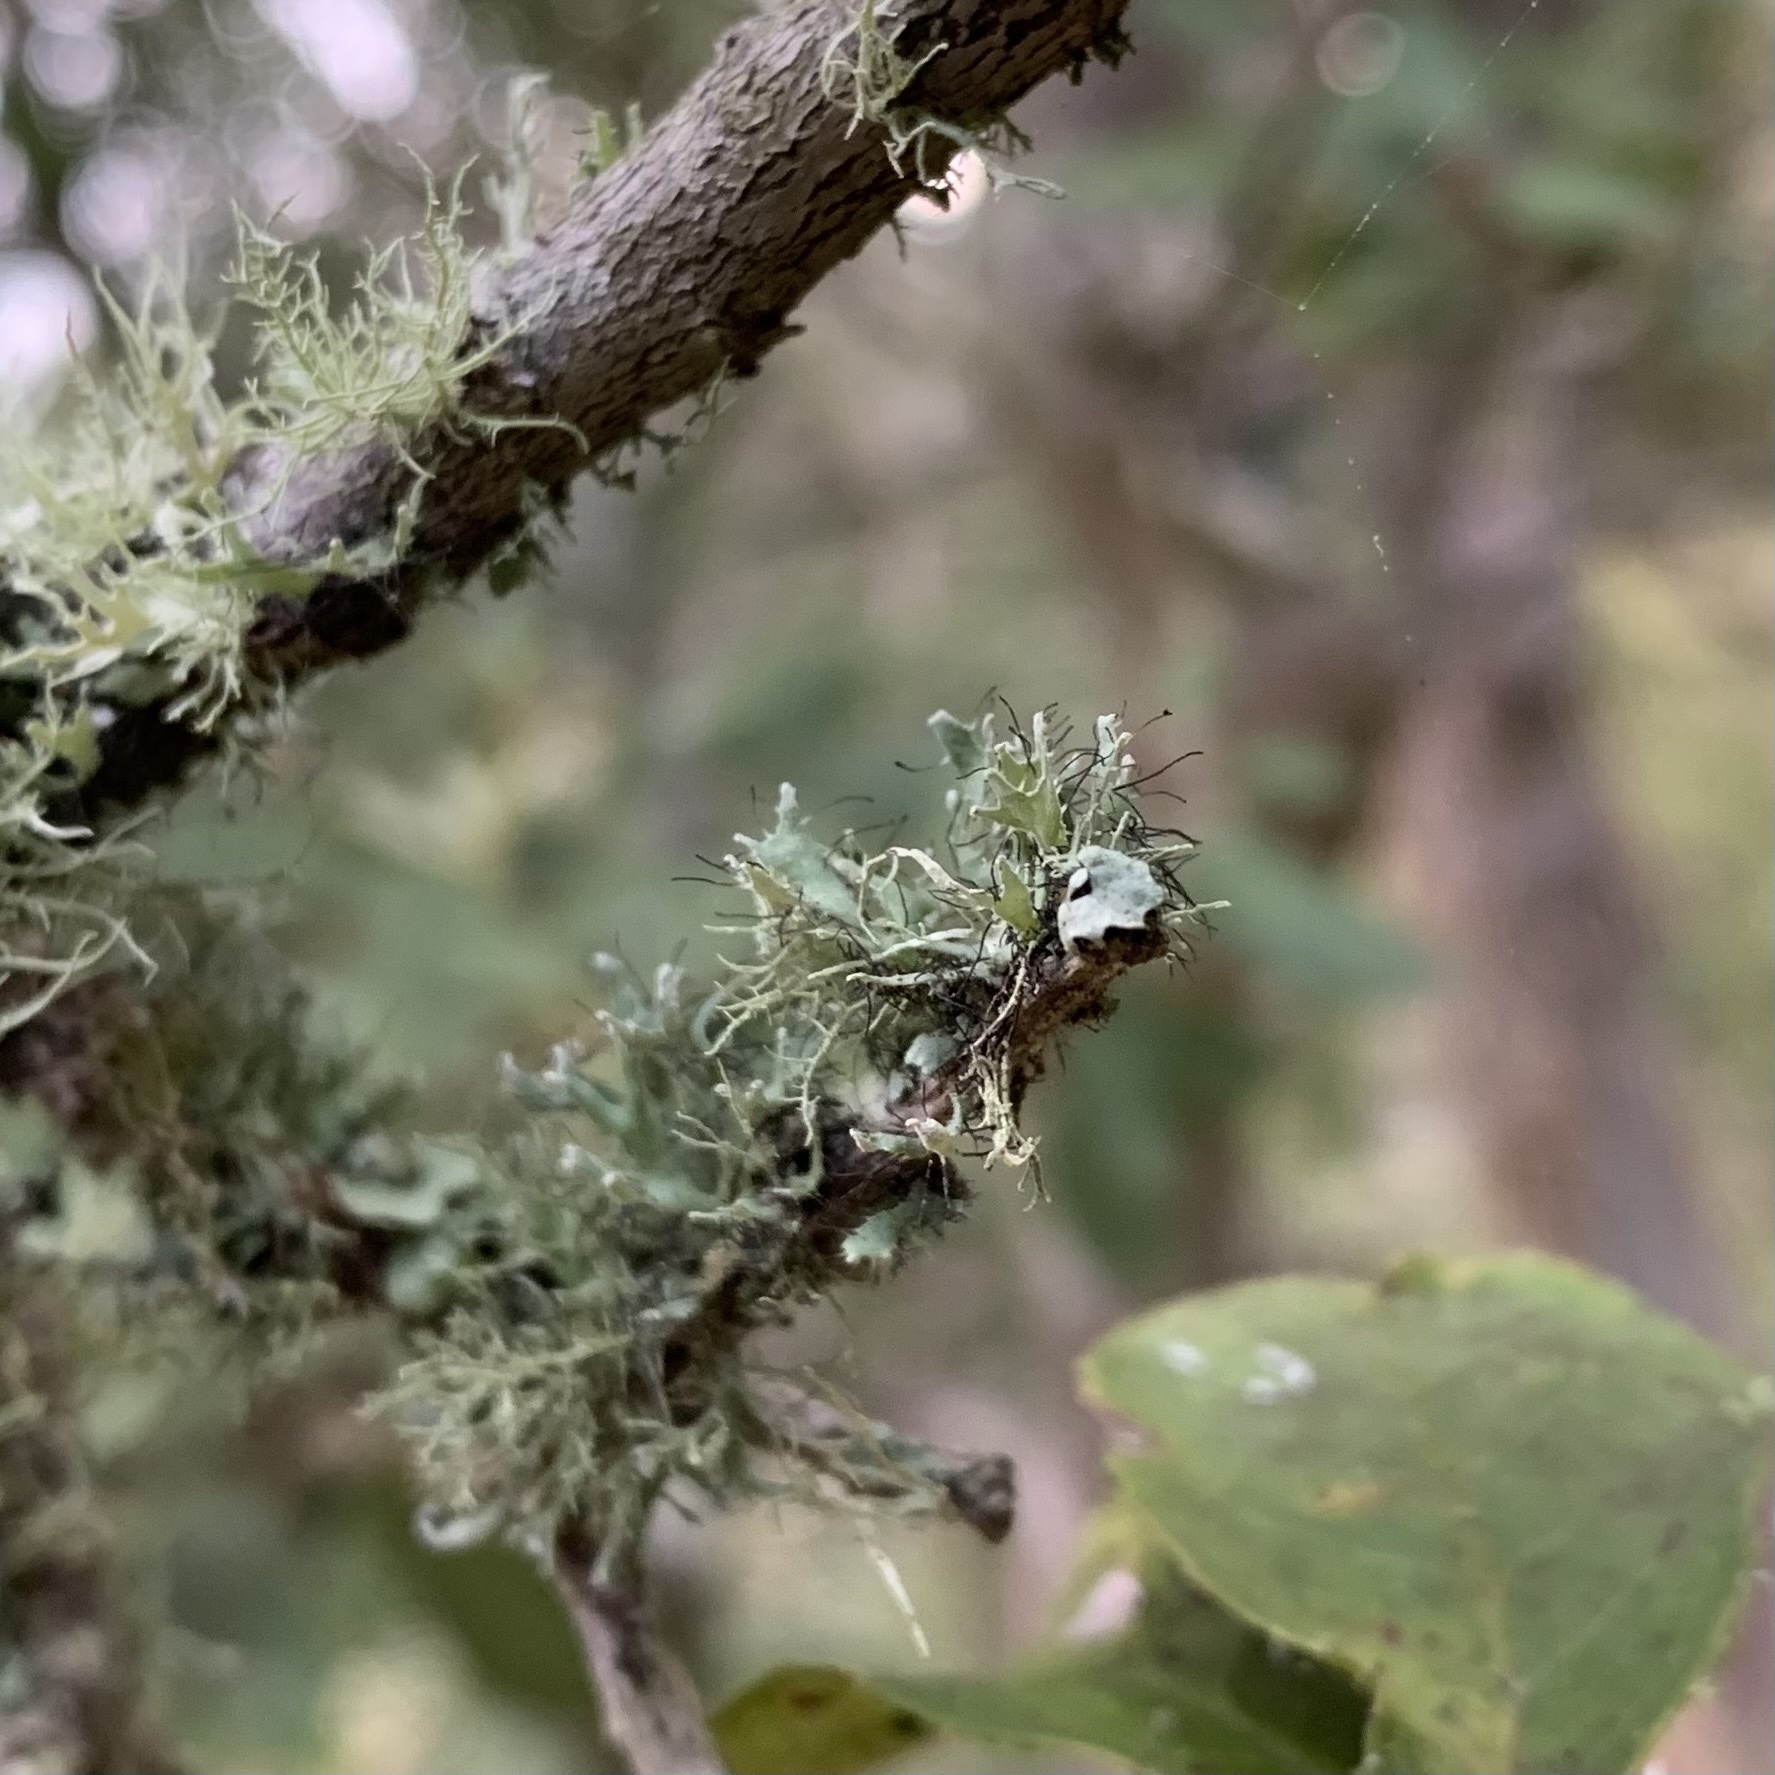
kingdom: Fungi
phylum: Ascomycota
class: Lecanoromycetes
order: Caliciales
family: Physciaceae
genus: Leucodermia
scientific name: Leucodermia leucomelos
